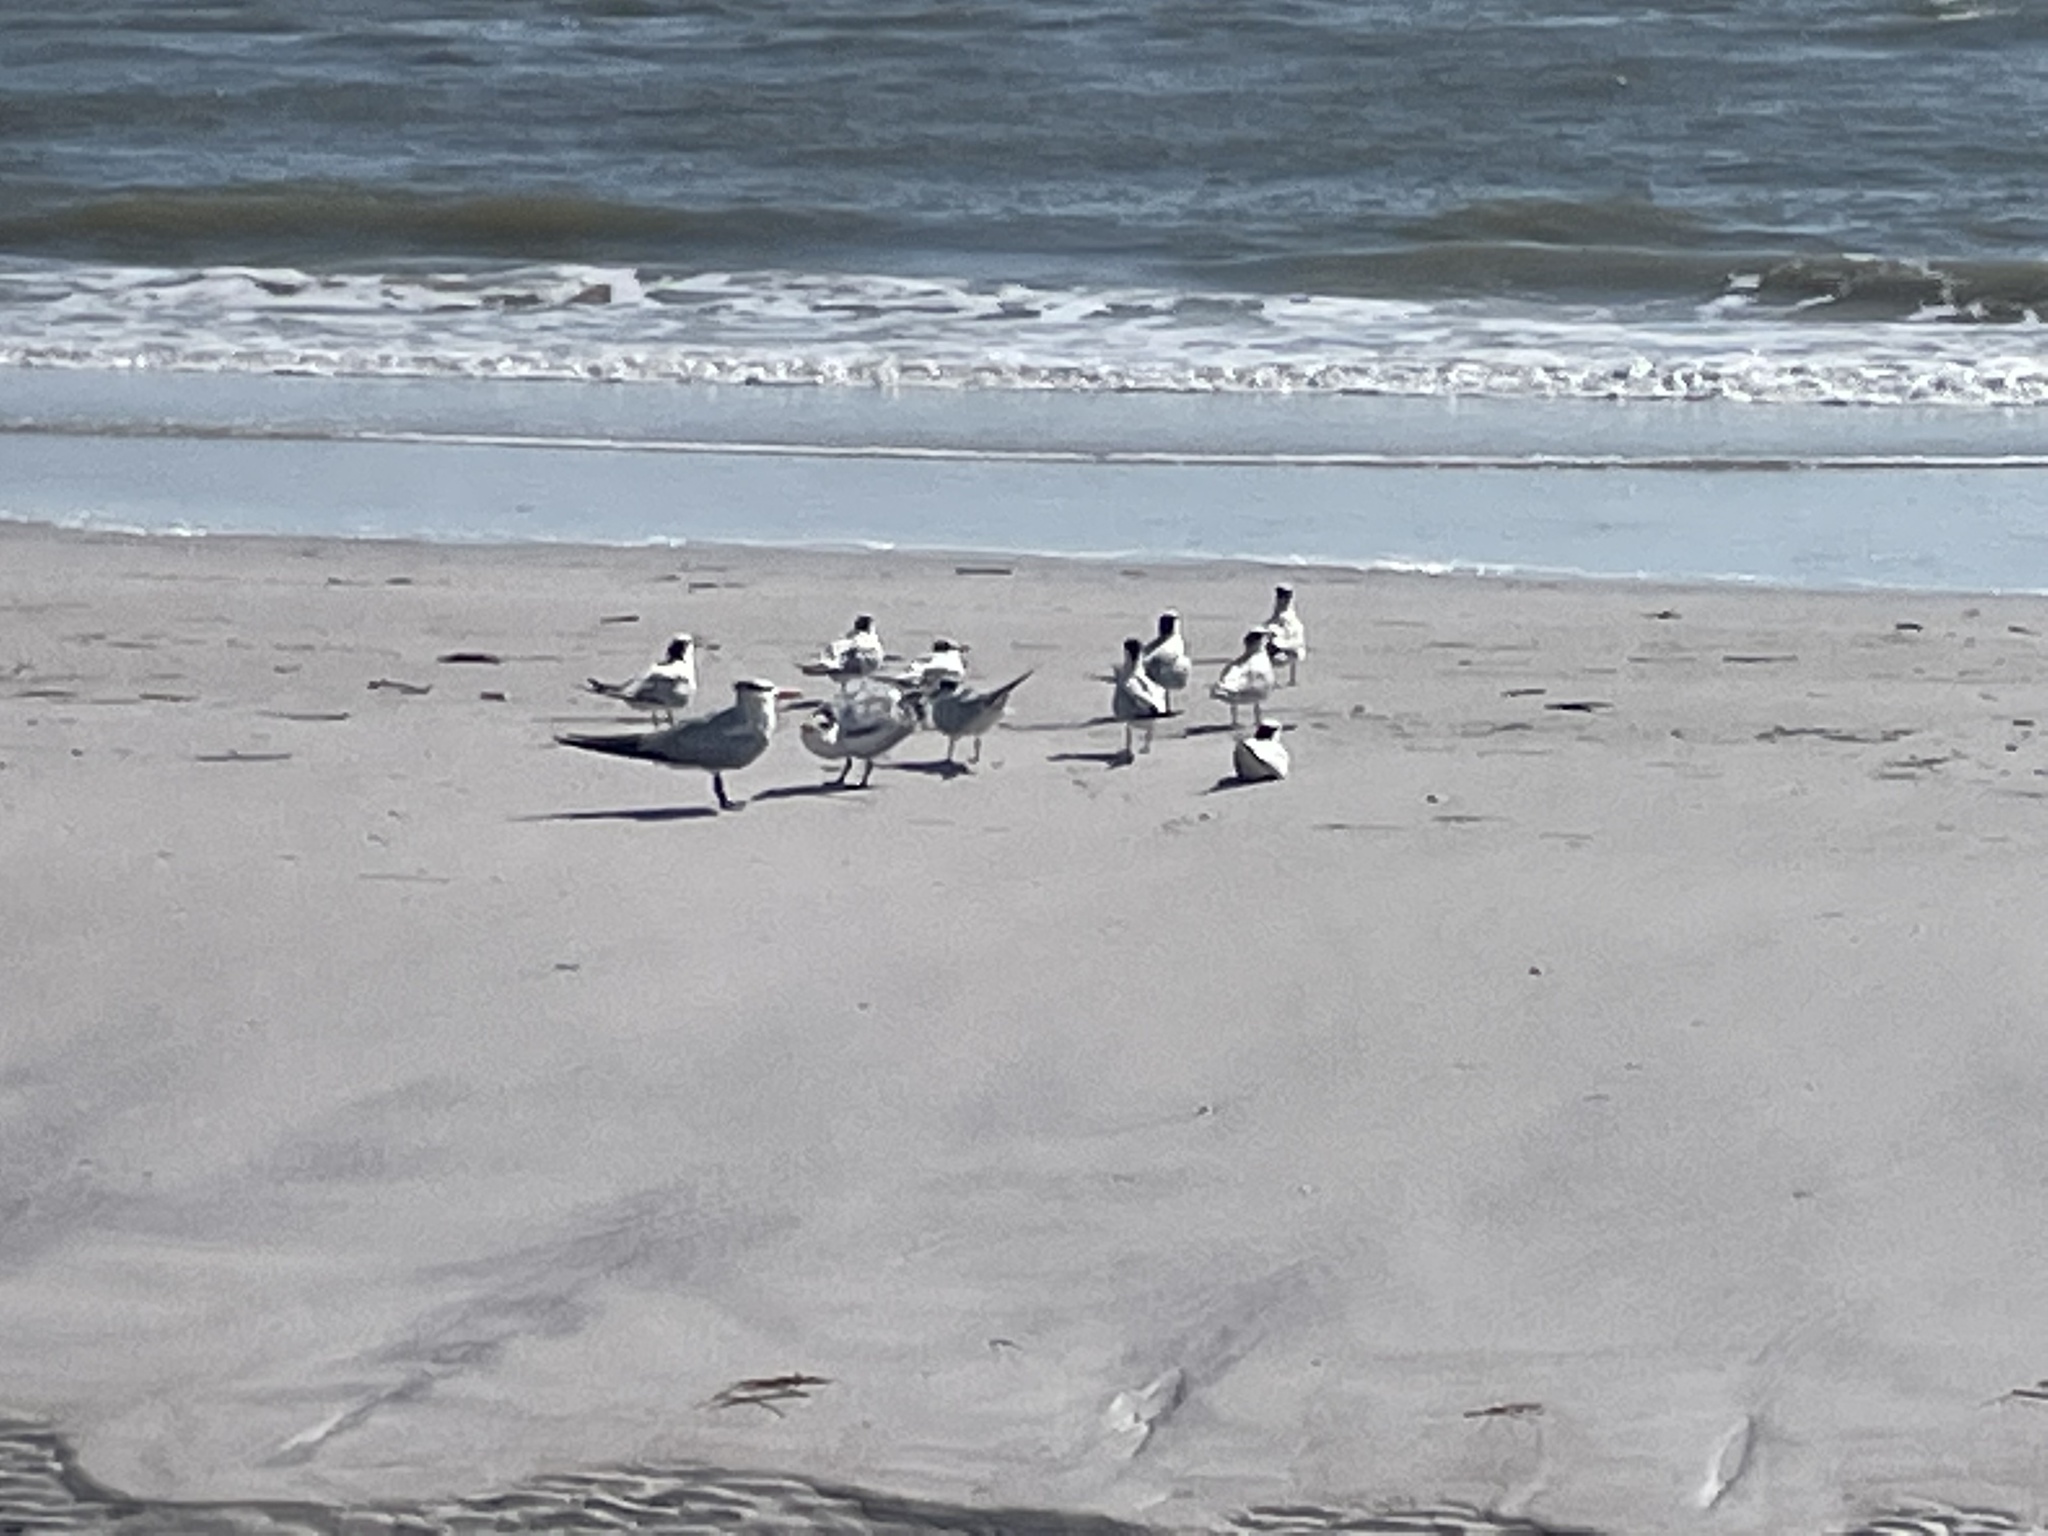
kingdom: Animalia
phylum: Chordata
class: Aves
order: Charadriiformes
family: Laridae
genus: Thalasseus
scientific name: Thalasseus acuflavidus
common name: Cabot's tern
